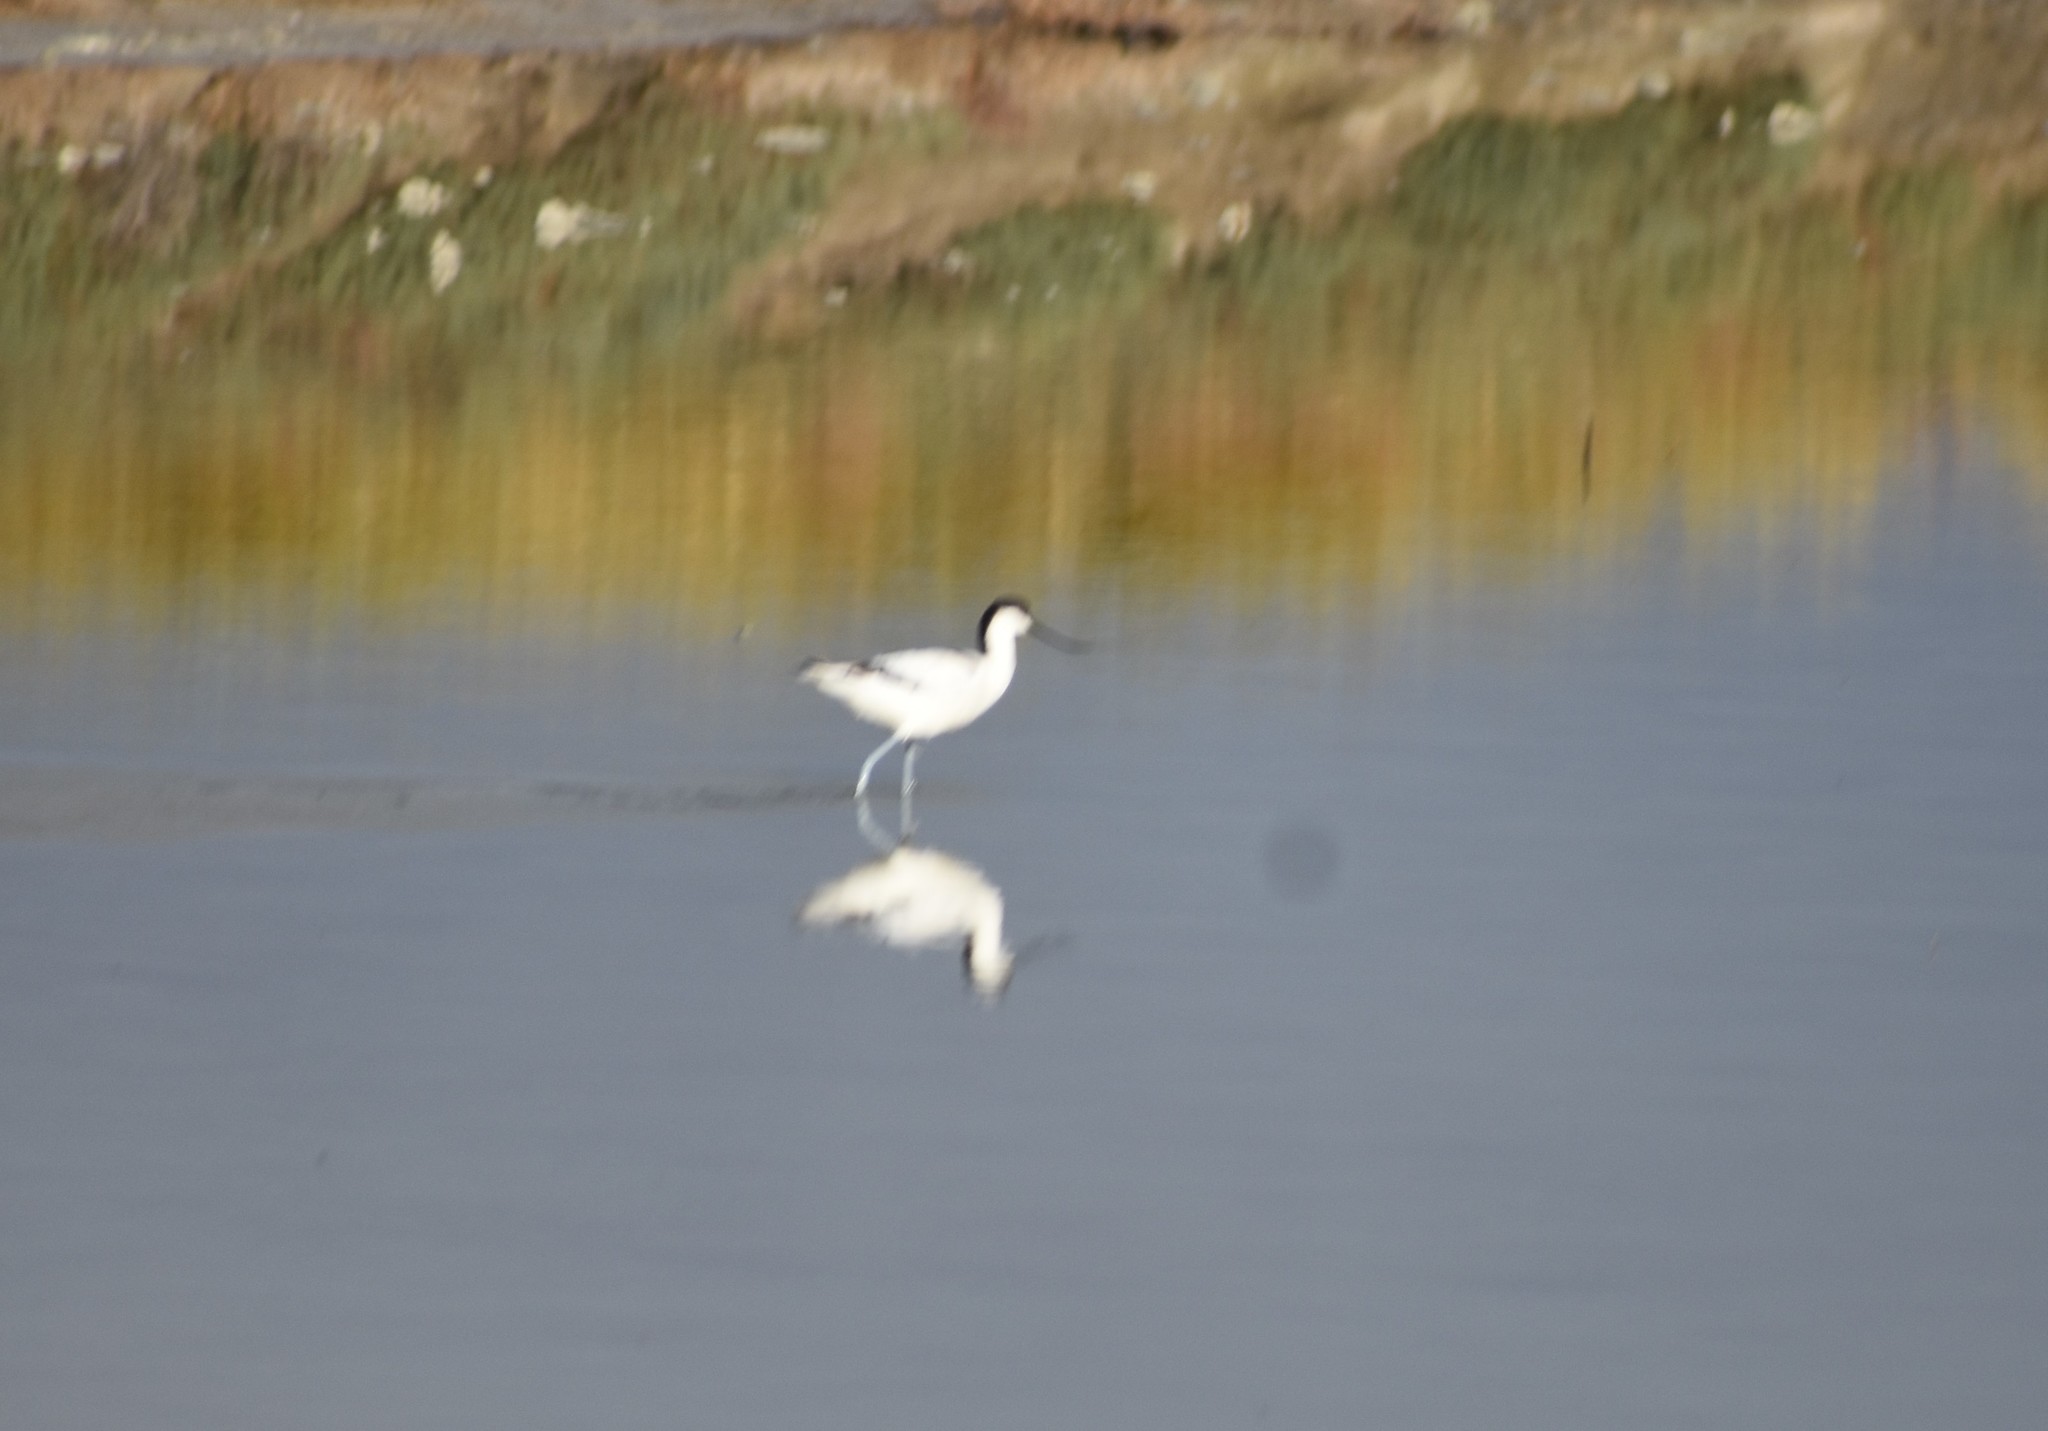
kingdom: Animalia
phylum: Chordata
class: Aves
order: Charadriiformes
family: Recurvirostridae
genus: Recurvirostra
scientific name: Recurvirostra avosetta
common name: Pied avocet
